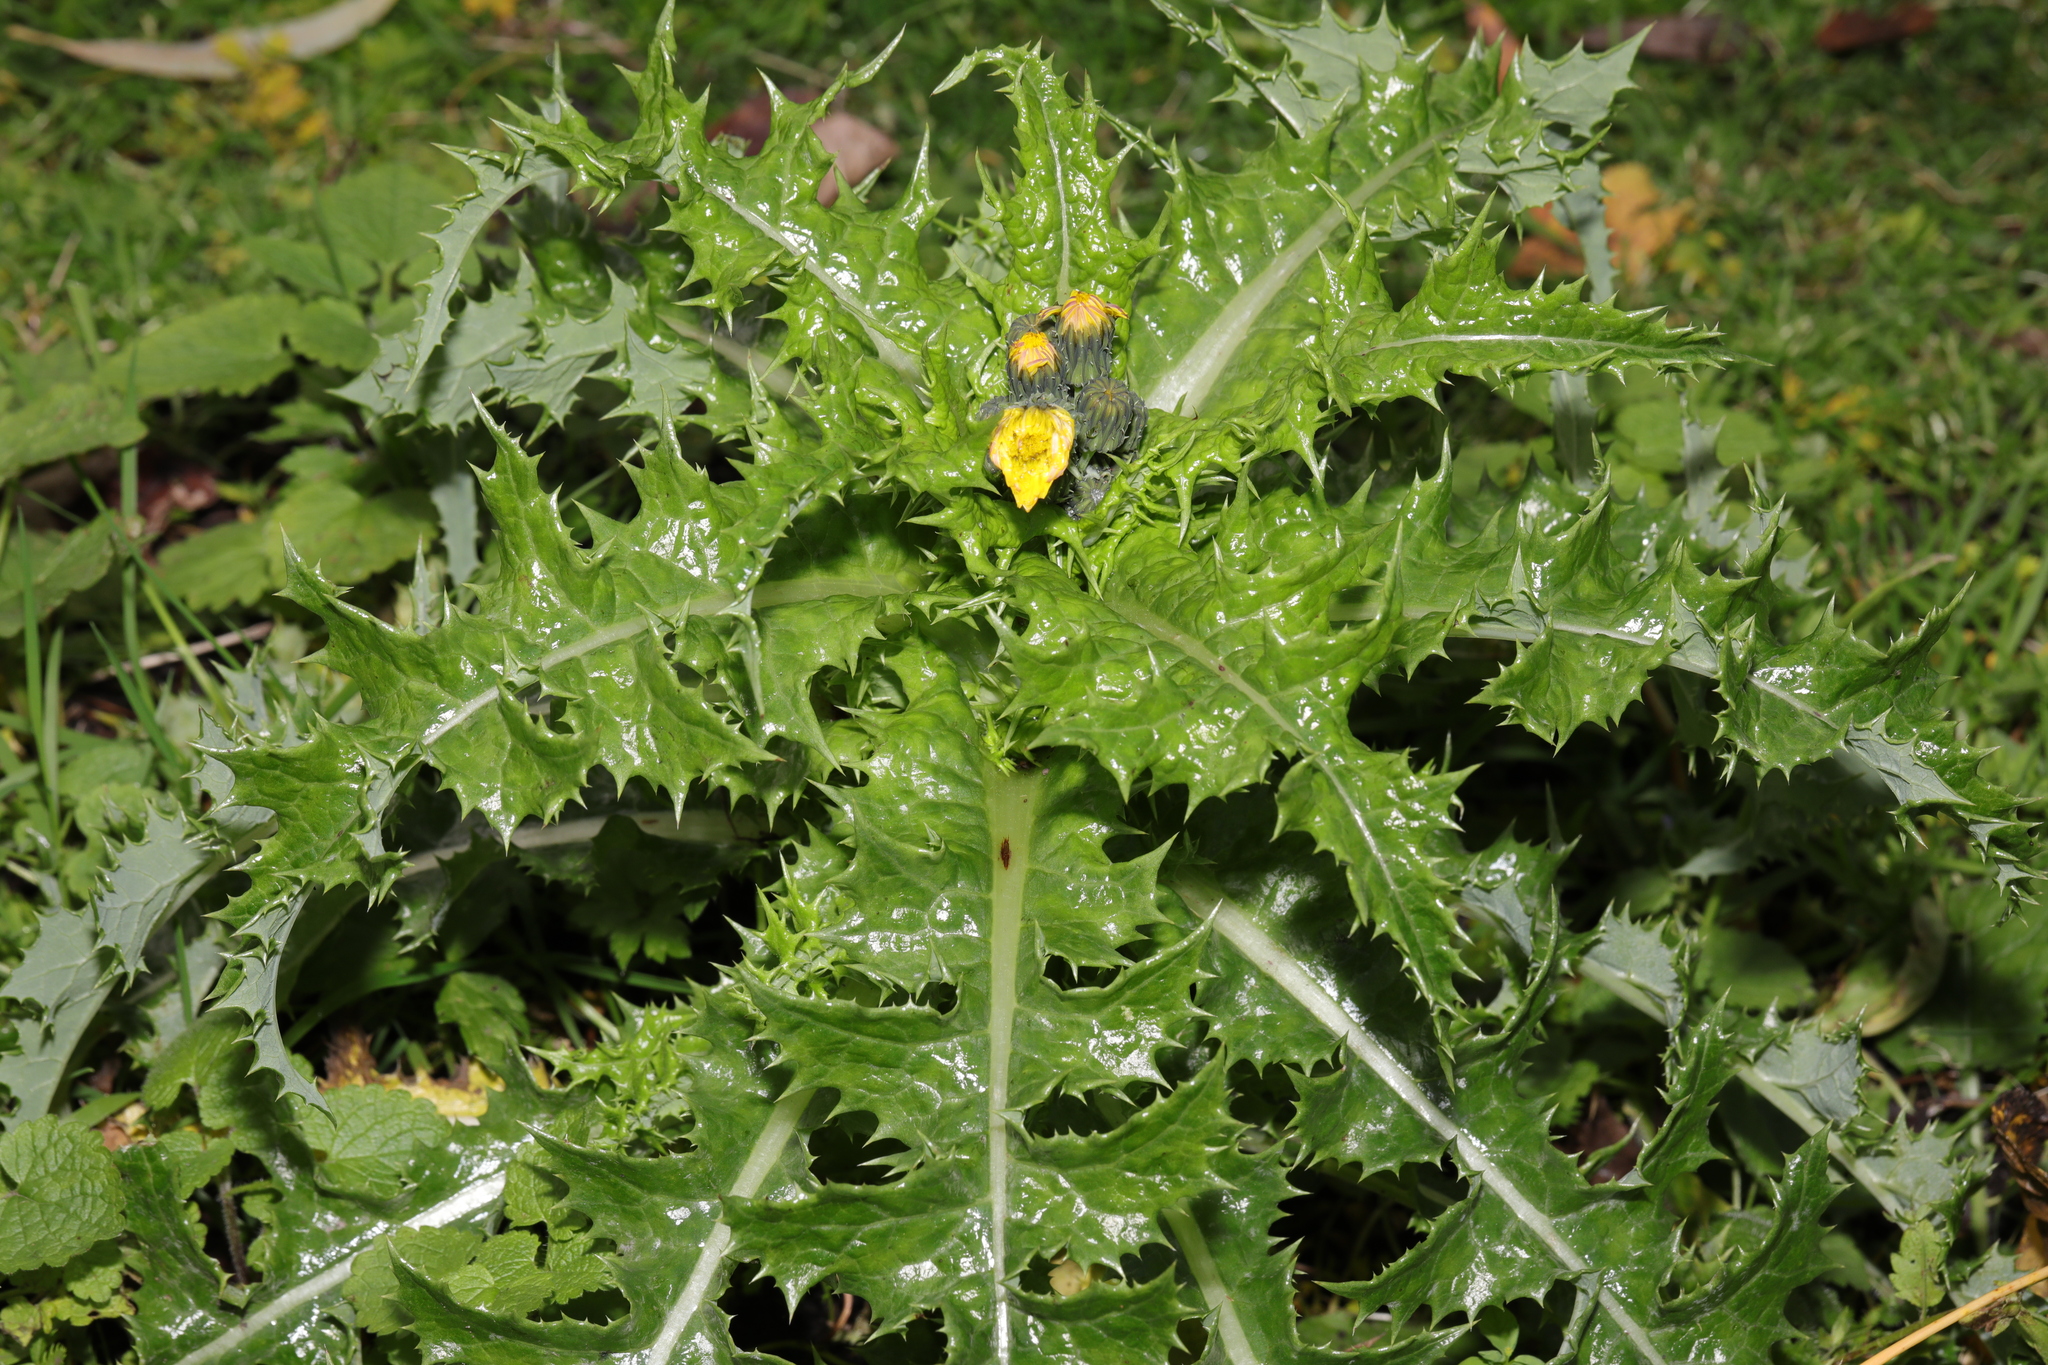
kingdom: Plantae
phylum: Tracheophyta
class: Magnoliopsida
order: Asterales
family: Asteraceae
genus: Sonchus
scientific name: Sonchus asper
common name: Prickly sow-thistle
